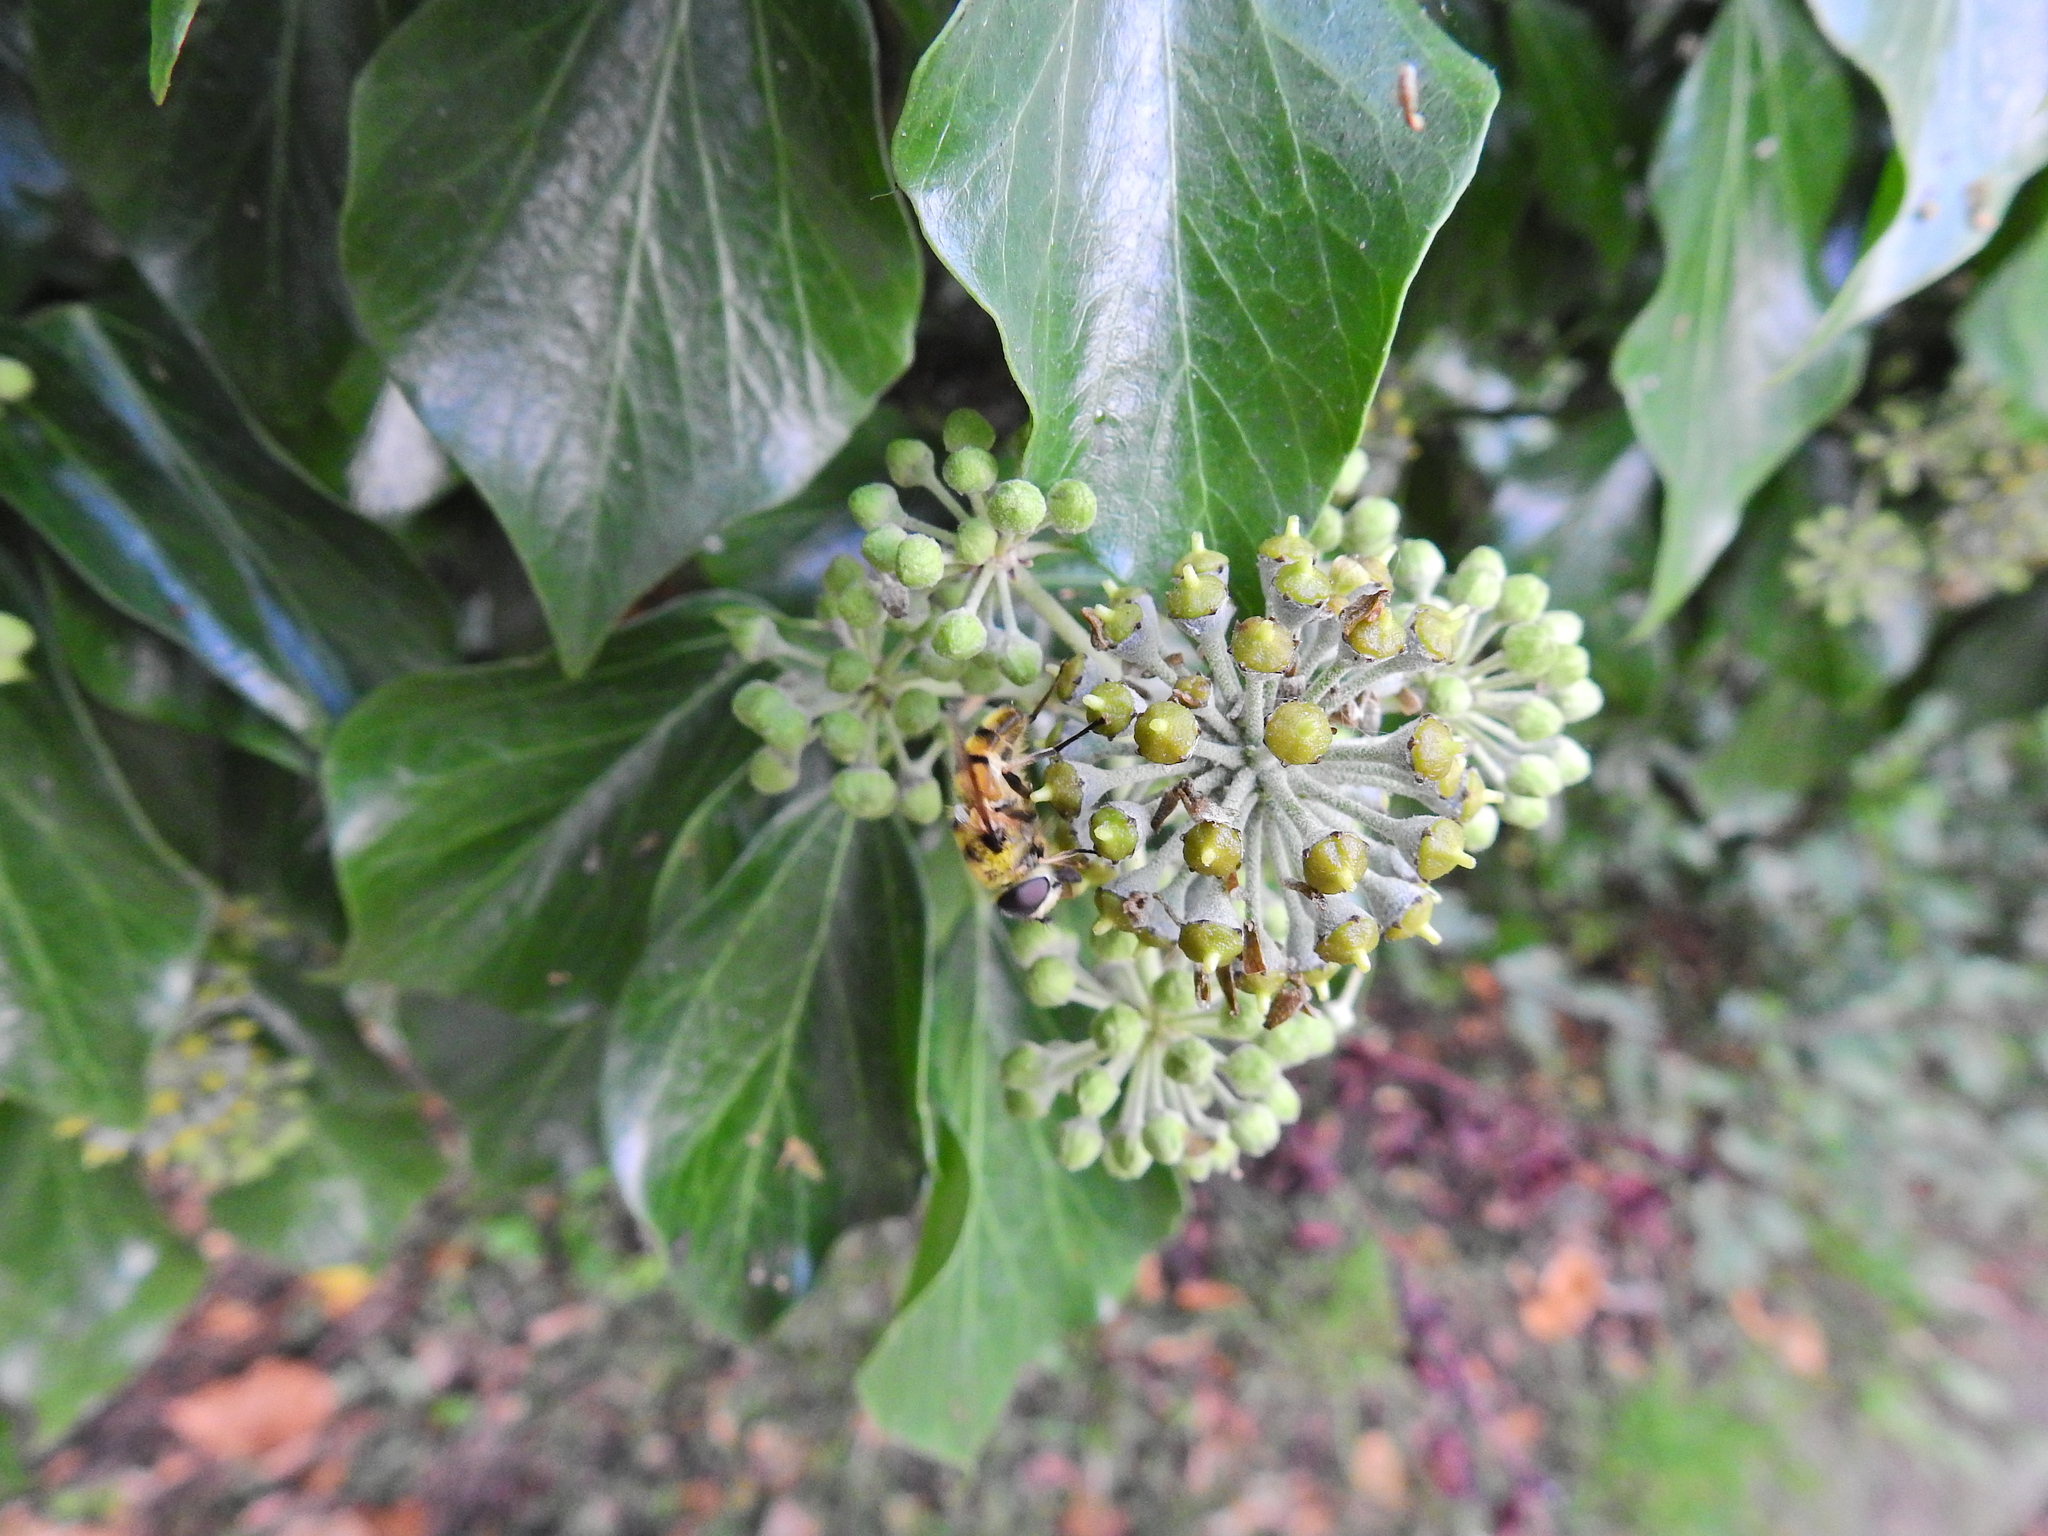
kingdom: Animalia
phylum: Arthropoda
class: Insecta
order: Diptera
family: Syrphidae
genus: Myathropa
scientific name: Myathropa florea
